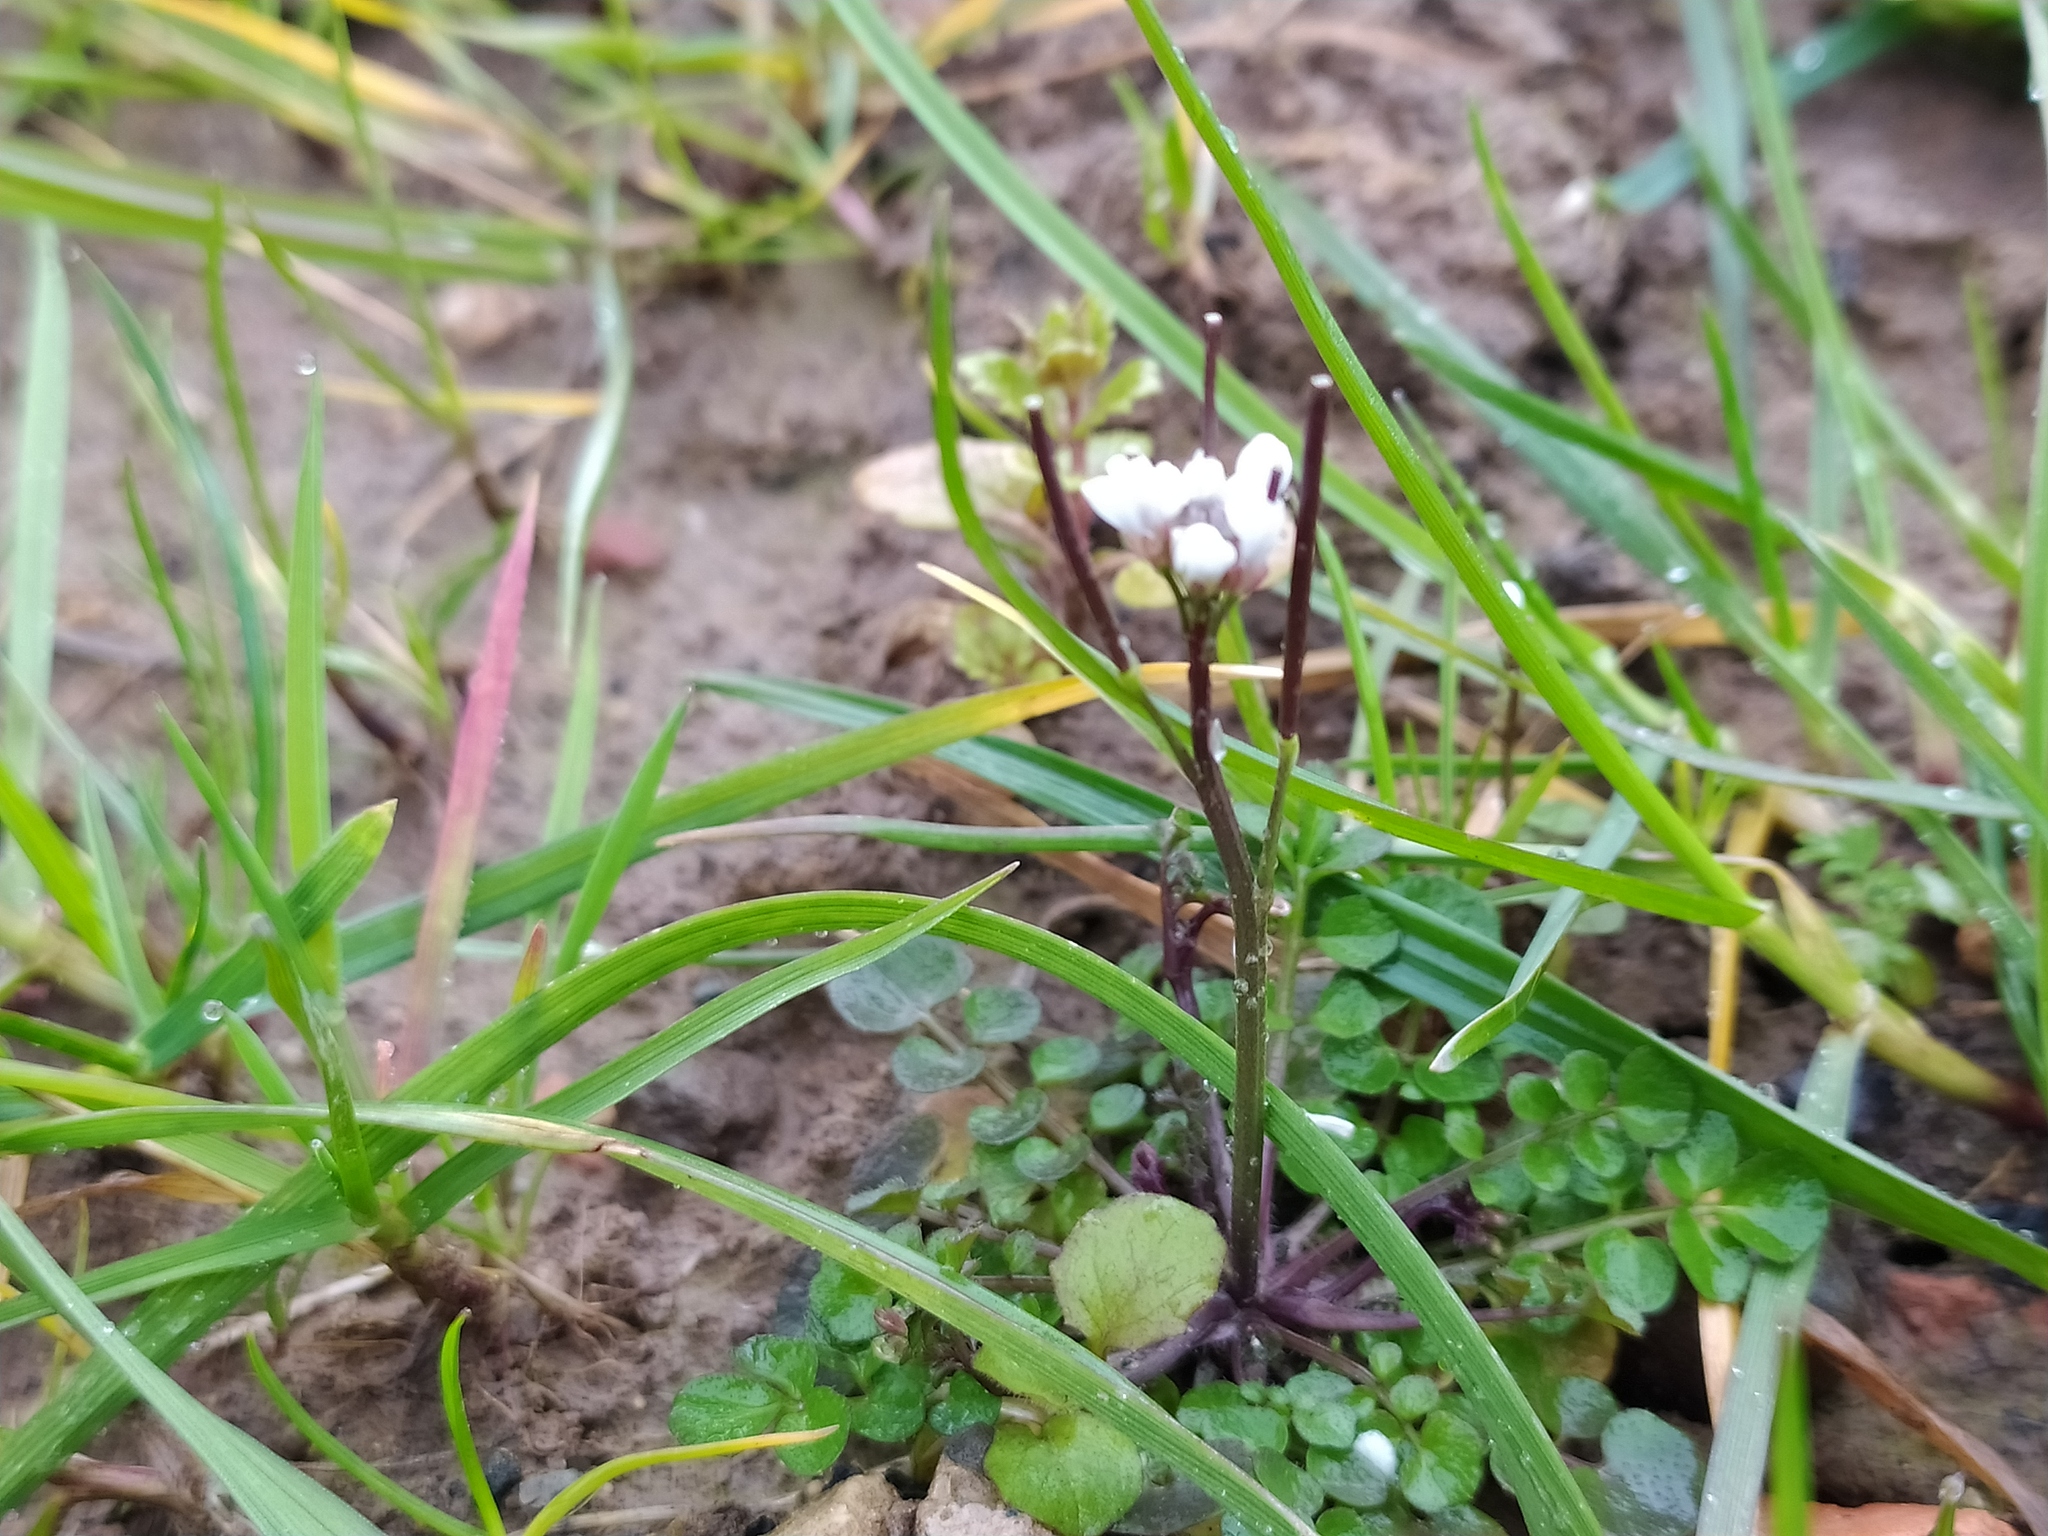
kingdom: Plantae
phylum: Tracheophyta
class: Magnoliopsida
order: Brassicales
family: Brassicaceae
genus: Cardamine
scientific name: Cardamine hirsuta
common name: Hairy bittercress
